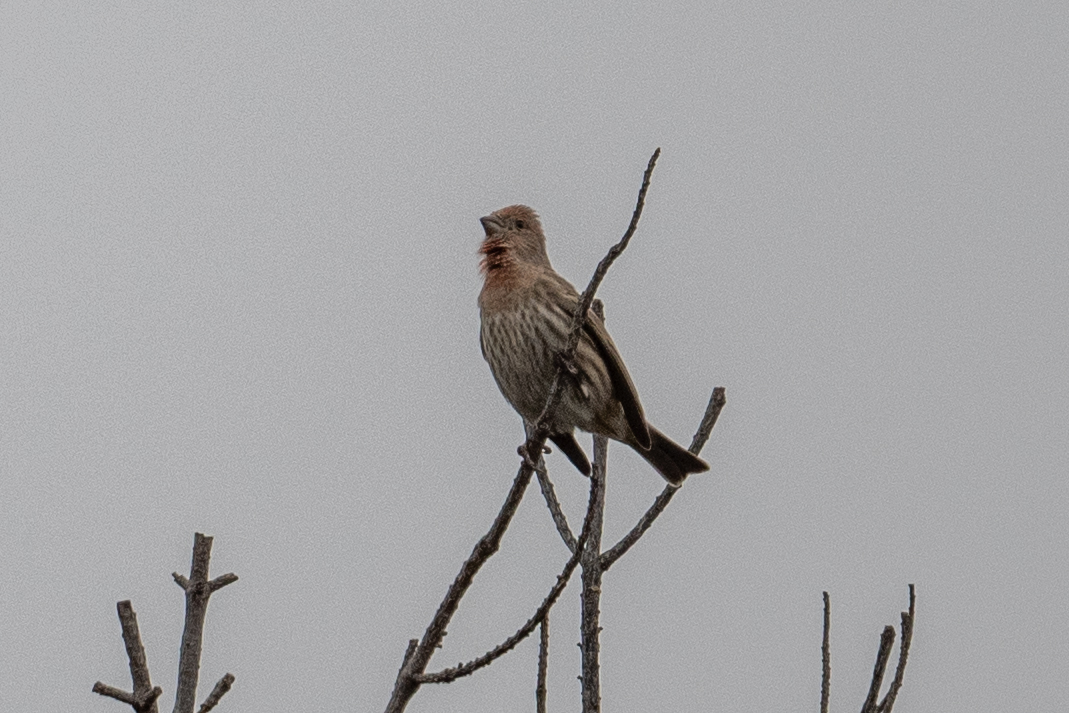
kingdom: Animalia
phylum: Chordata
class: Aves
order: Passeriformes
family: Fringillidae
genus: Haemorhous
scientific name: Haemorhous mexicanus
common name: House finch
